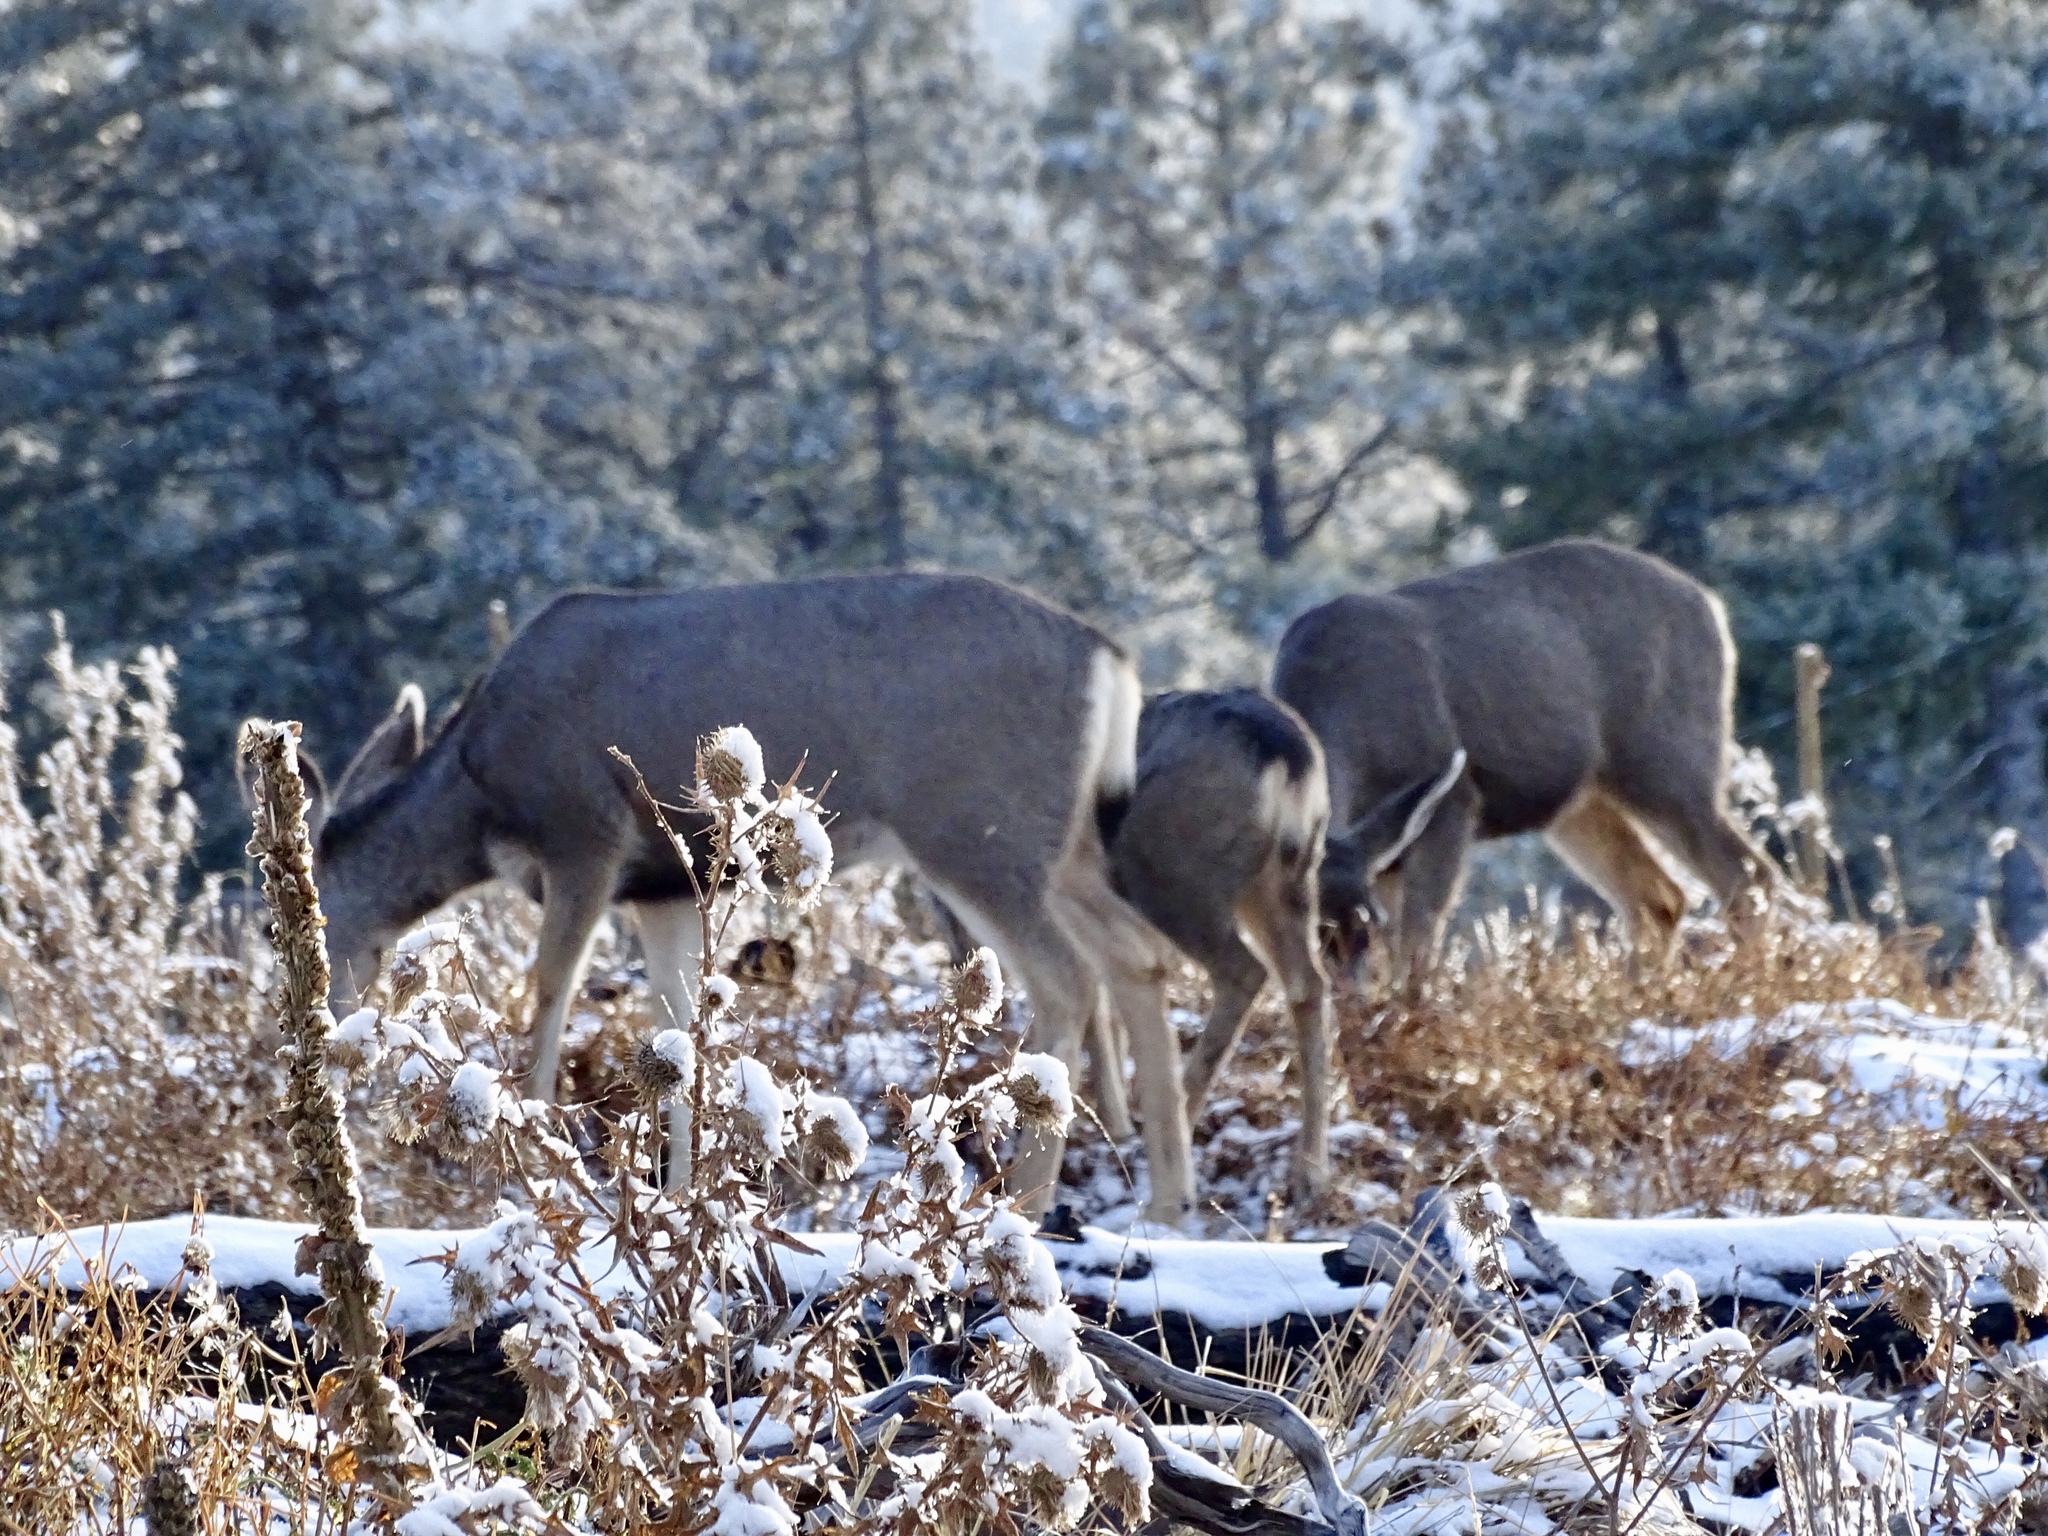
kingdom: Animalia
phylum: Chordata
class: Mammalia
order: Artiodactyla
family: Cervidae
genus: Odocoileus
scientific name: Odocoileus hemionus
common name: Mule deer
